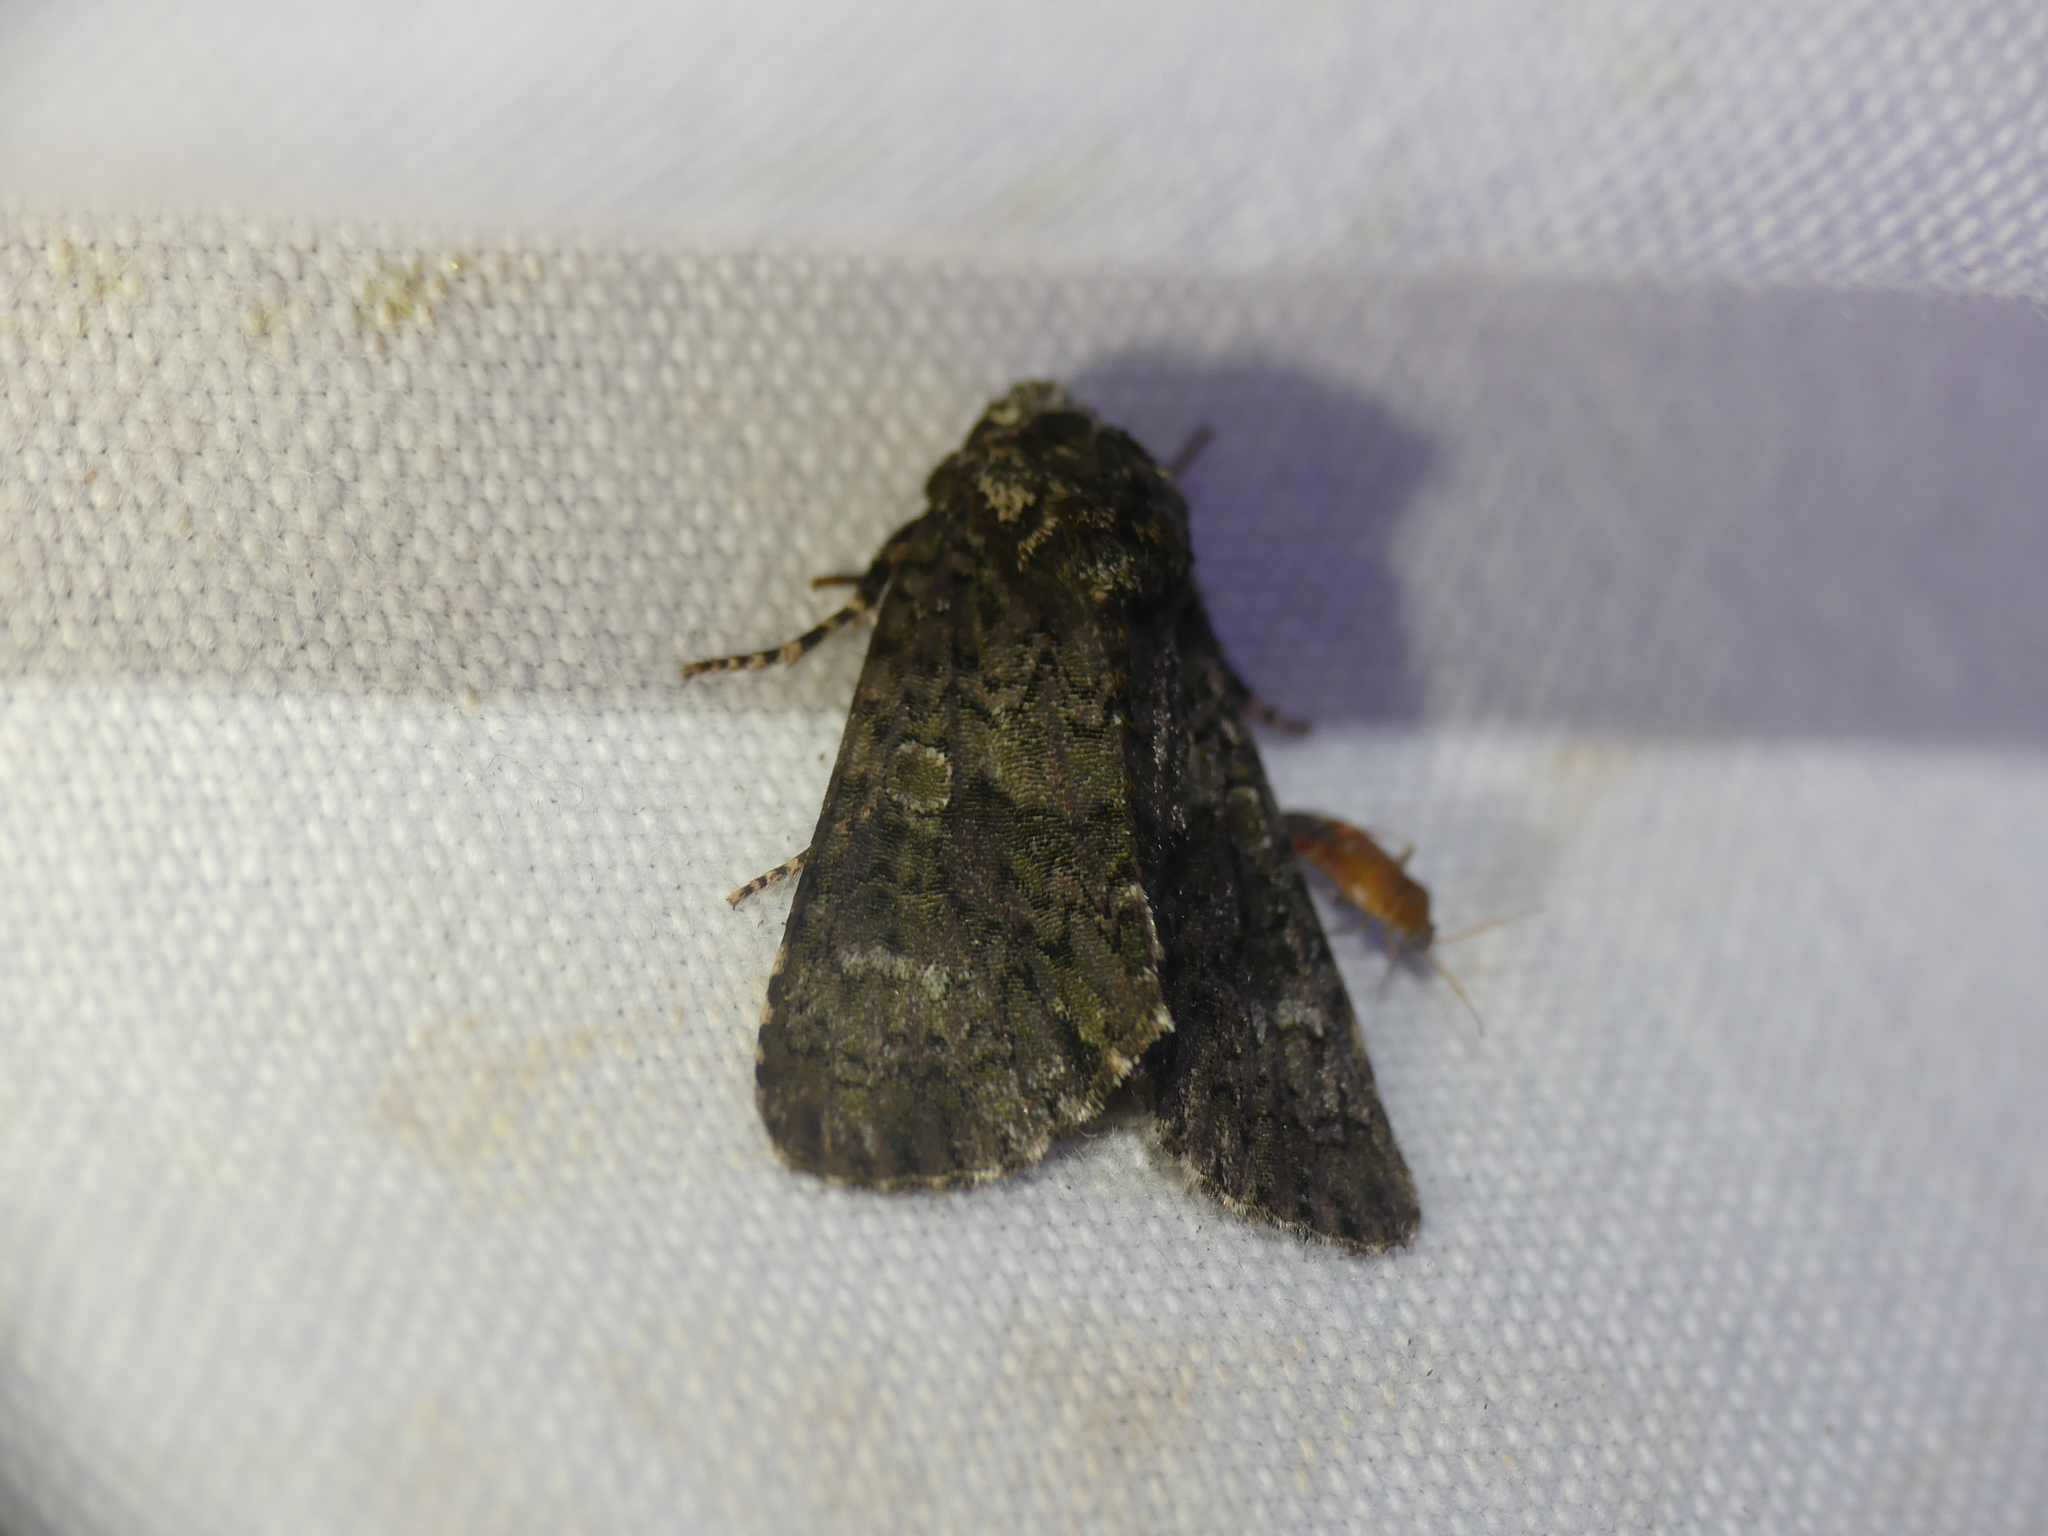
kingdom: Animalia
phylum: Arthropoda
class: Insecta
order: Lepidoptera
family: Noctuidae
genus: Craniophora
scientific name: Craniophora ligustri
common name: Coronet
